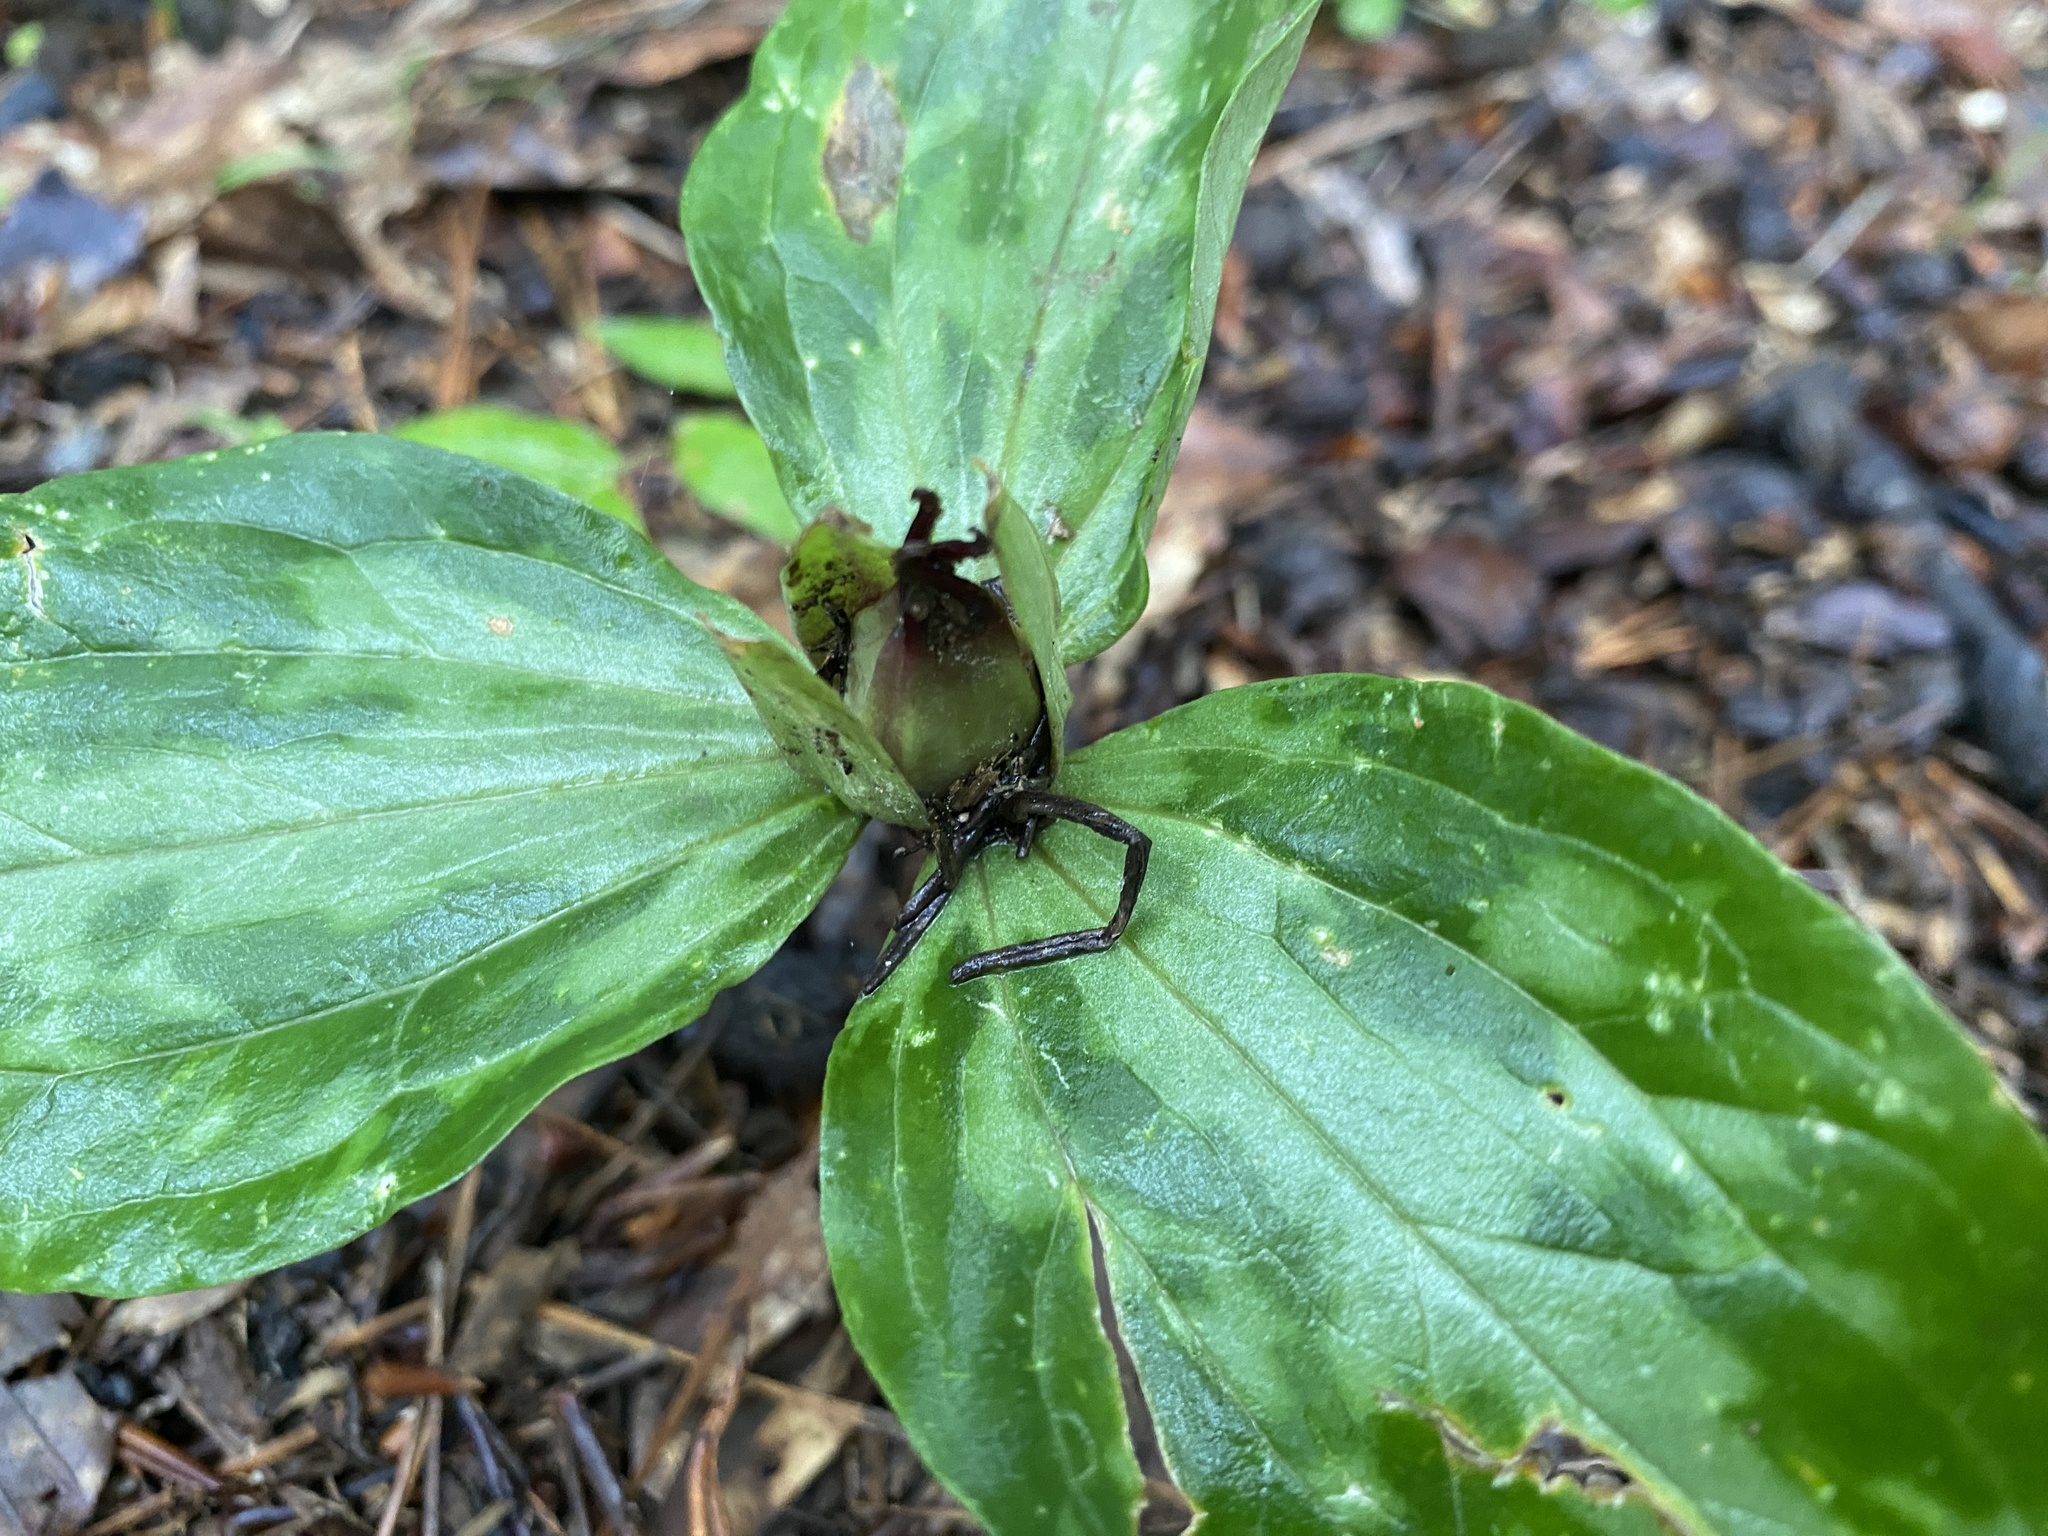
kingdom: Plantae
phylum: Tracheophyta
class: Liliopsida
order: Liliales
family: Melanthiaceae
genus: Trillium
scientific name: Trillium foetidissimum
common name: Mississippi river trillium
